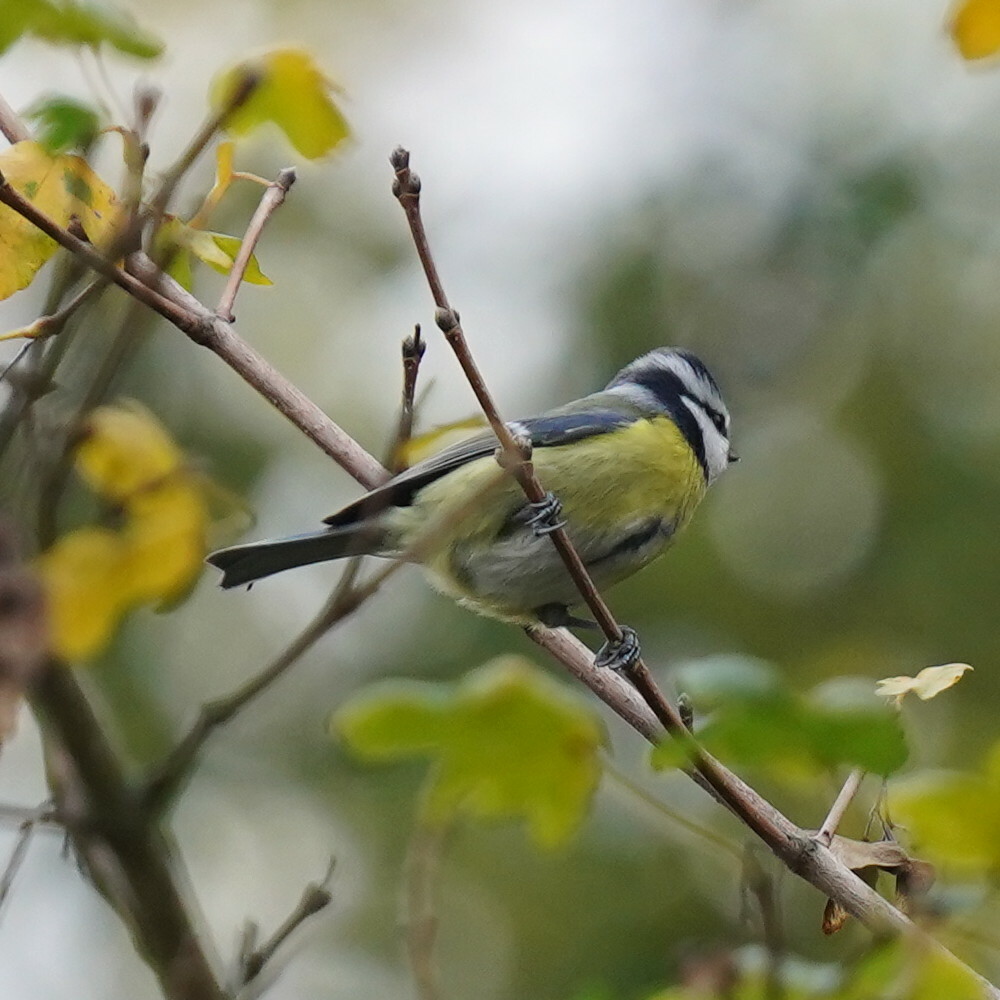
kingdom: Animalia
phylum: Chordata
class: Aves
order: Passeriformes
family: Paridae
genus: Cyanistes
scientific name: Cyanistes caeruleus
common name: Eurasian blue tit
